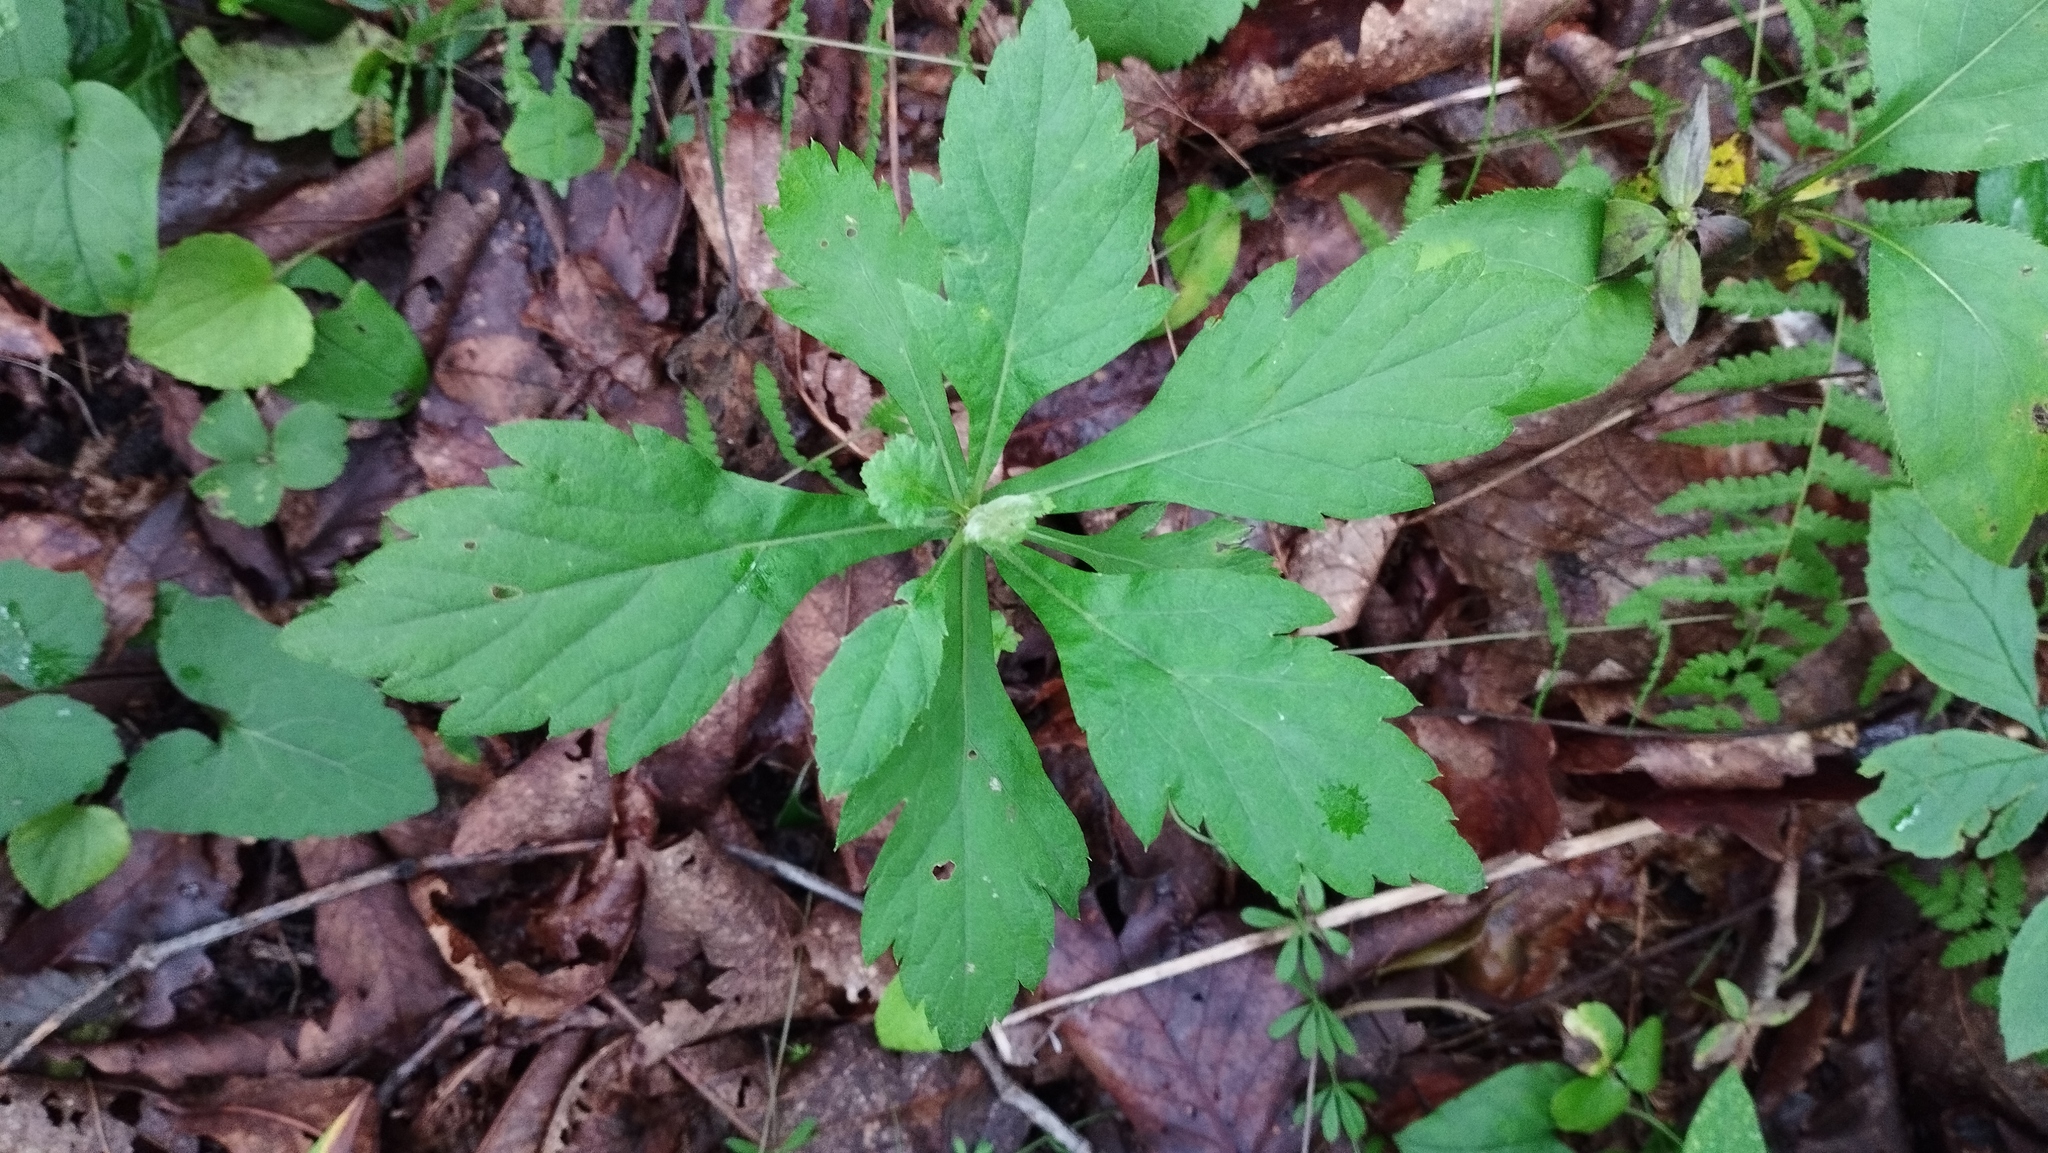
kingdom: Plantae
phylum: Tracheophyta
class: Magnoliopsida
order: Asterales
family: Asteraceae
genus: Artemisia
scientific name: Artemisia stolonifera
